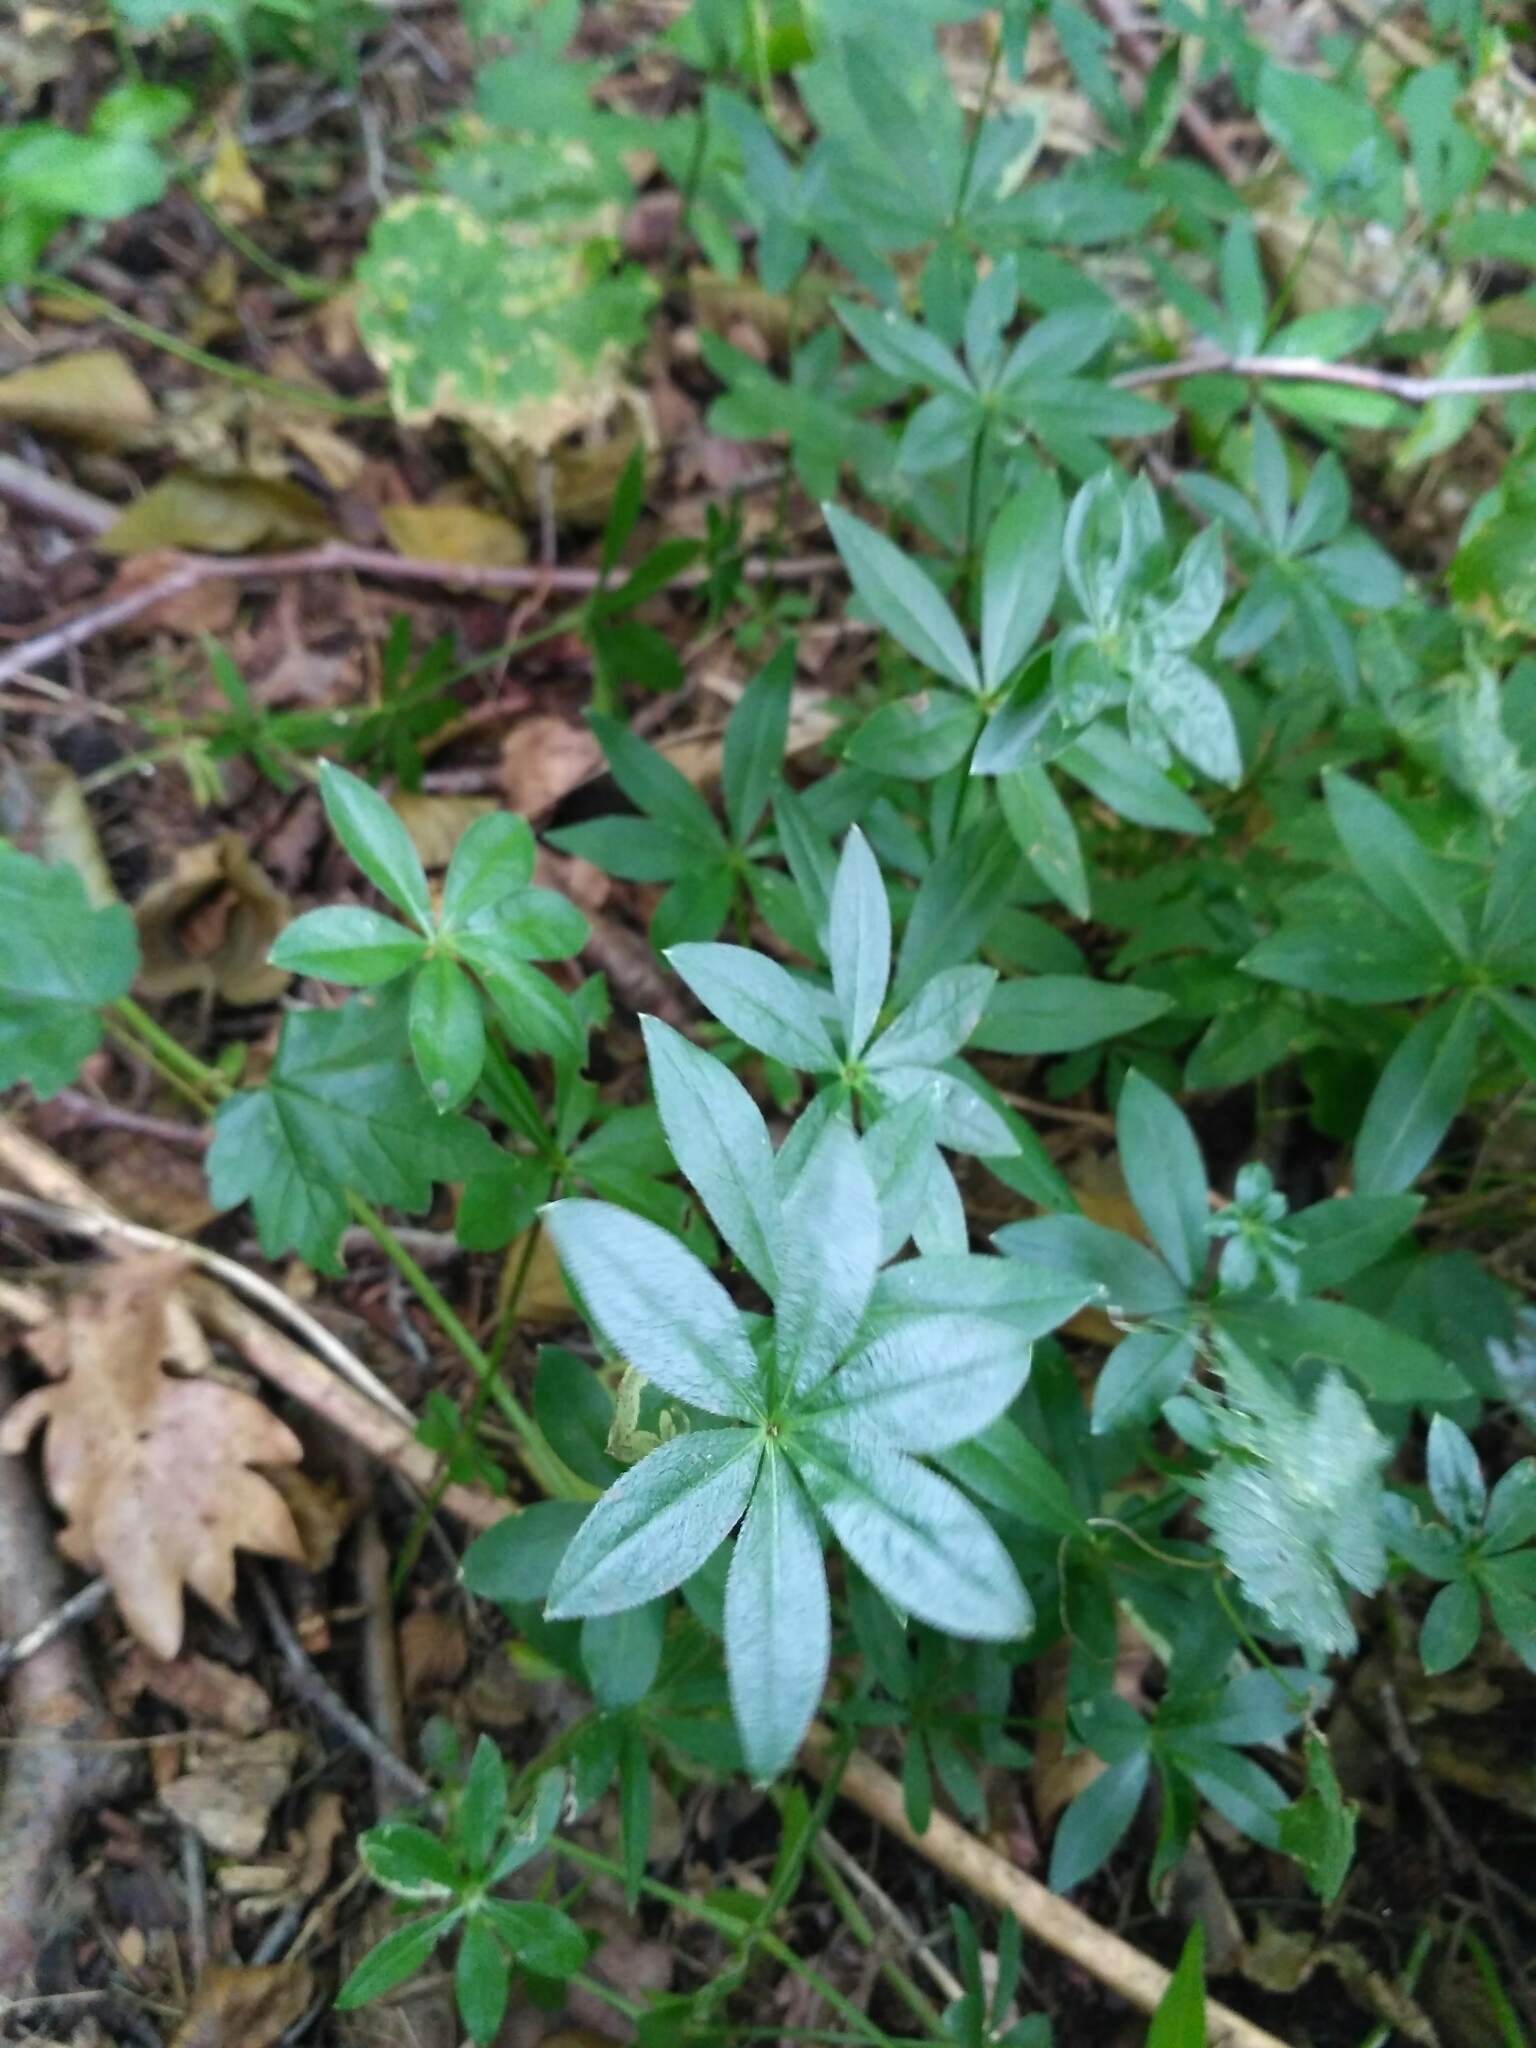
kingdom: Plantae
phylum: Tracheophyta
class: Magnoliopsida
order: Gentianales
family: Rubiaceae
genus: Galium
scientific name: Galium odoratum
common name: Sweet woodruff
